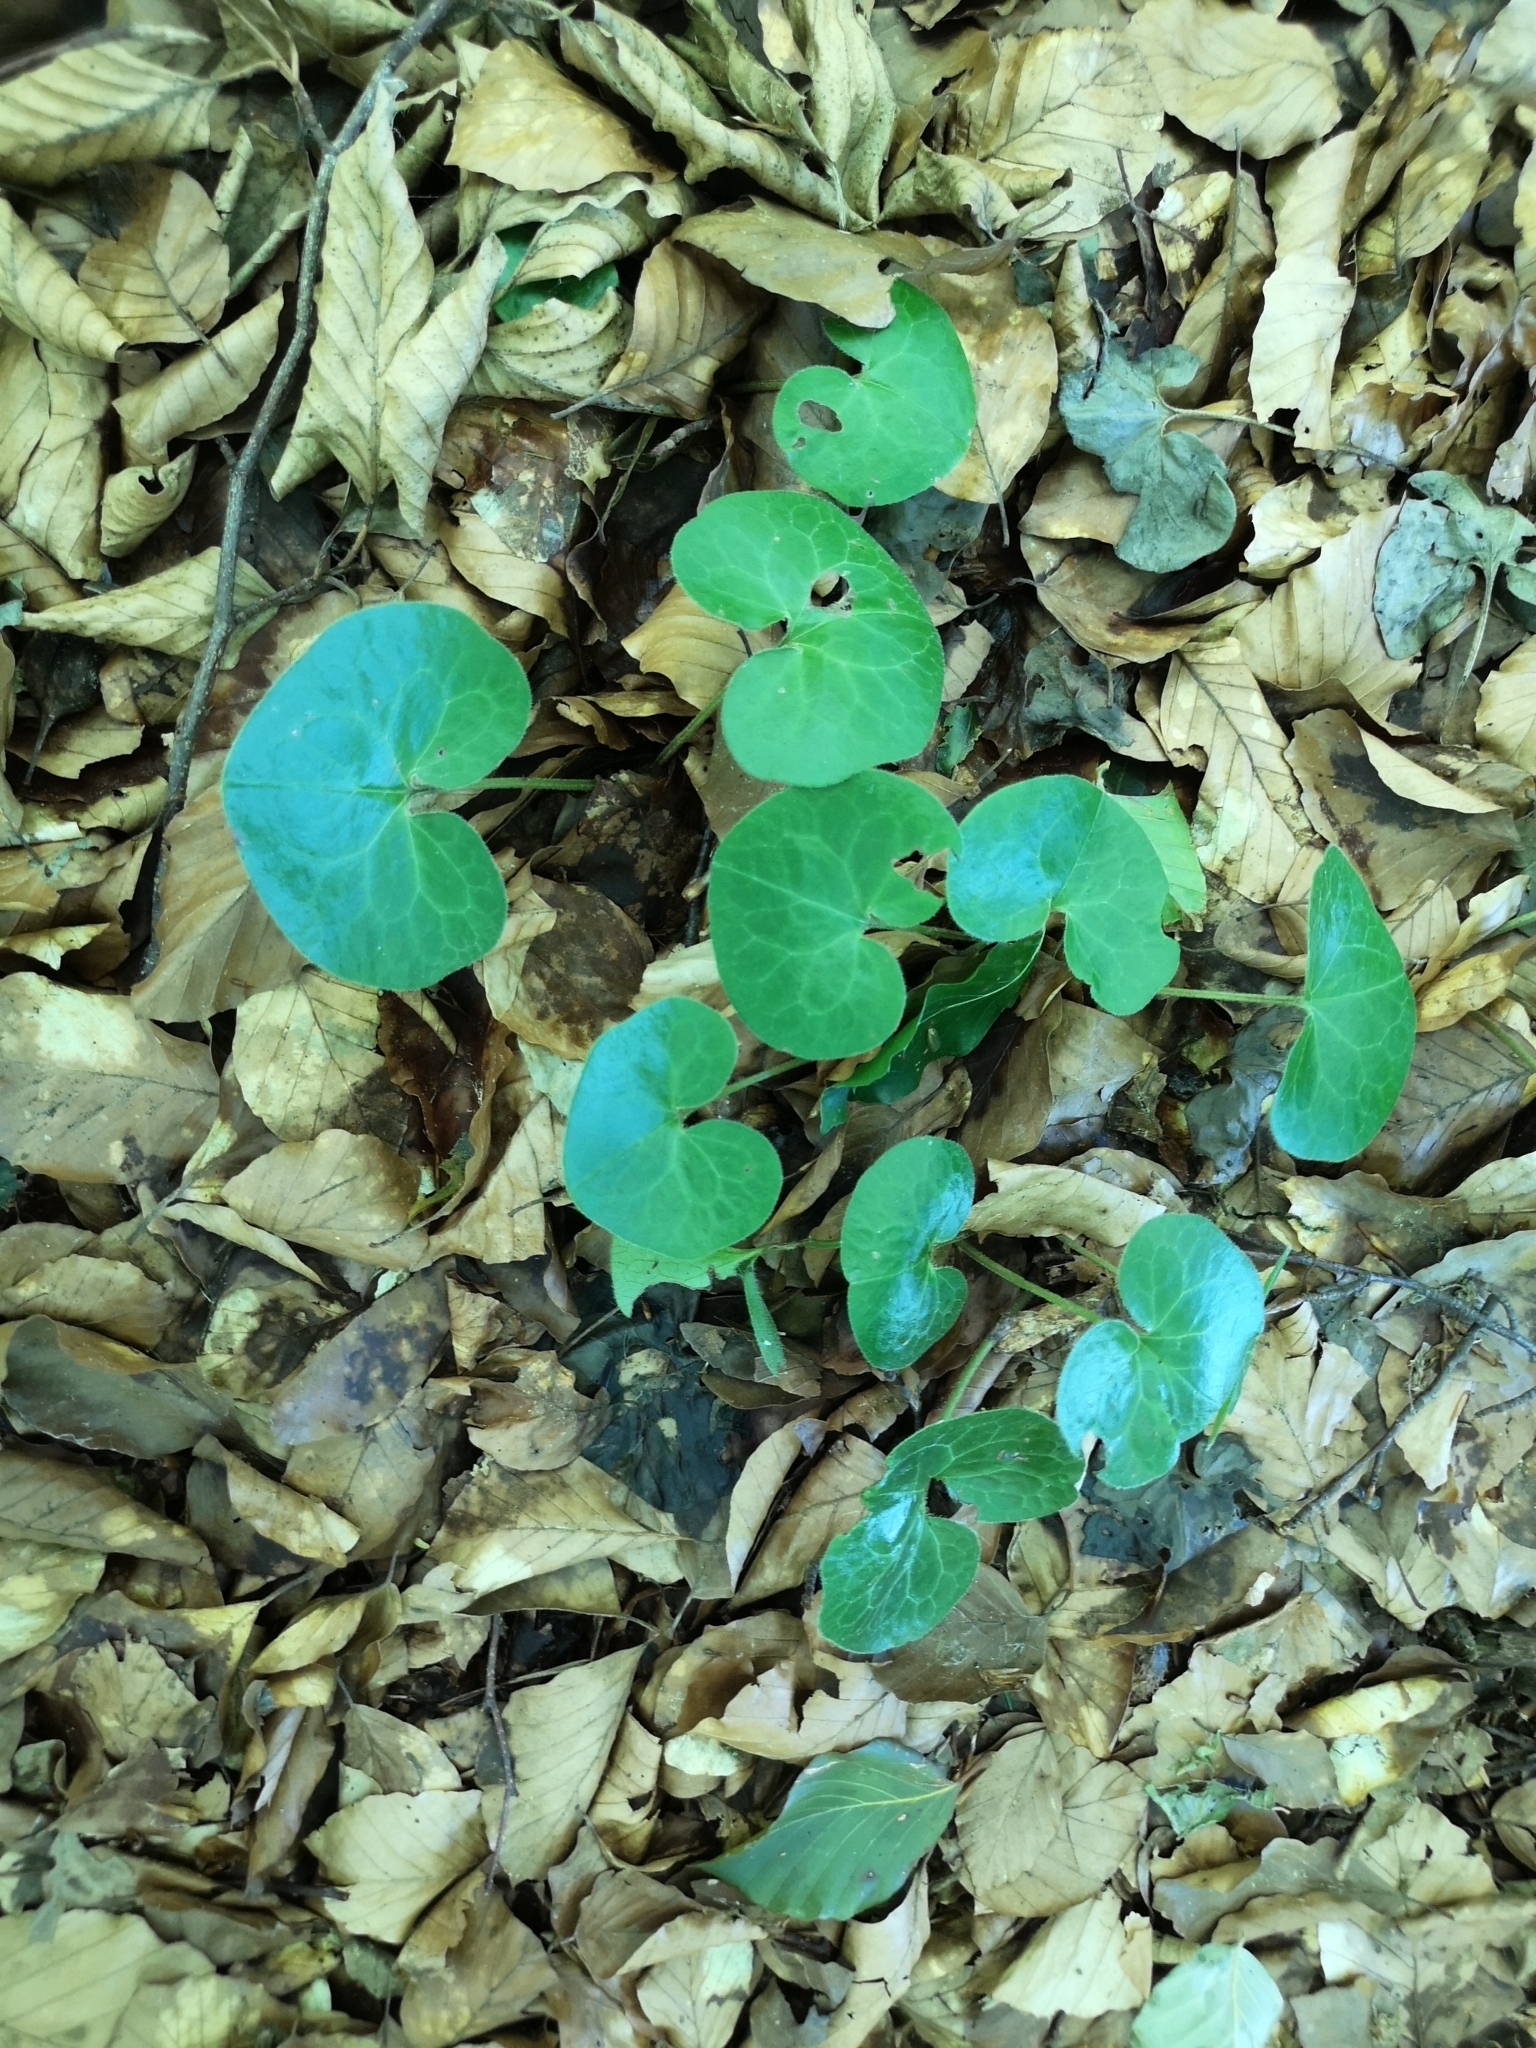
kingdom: Plantae
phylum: Tracheophyta
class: Magnoliopsida
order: Piperales
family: Aristolochiaceae
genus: Asarum
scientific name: Asarum europaeum
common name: Asarabacca
